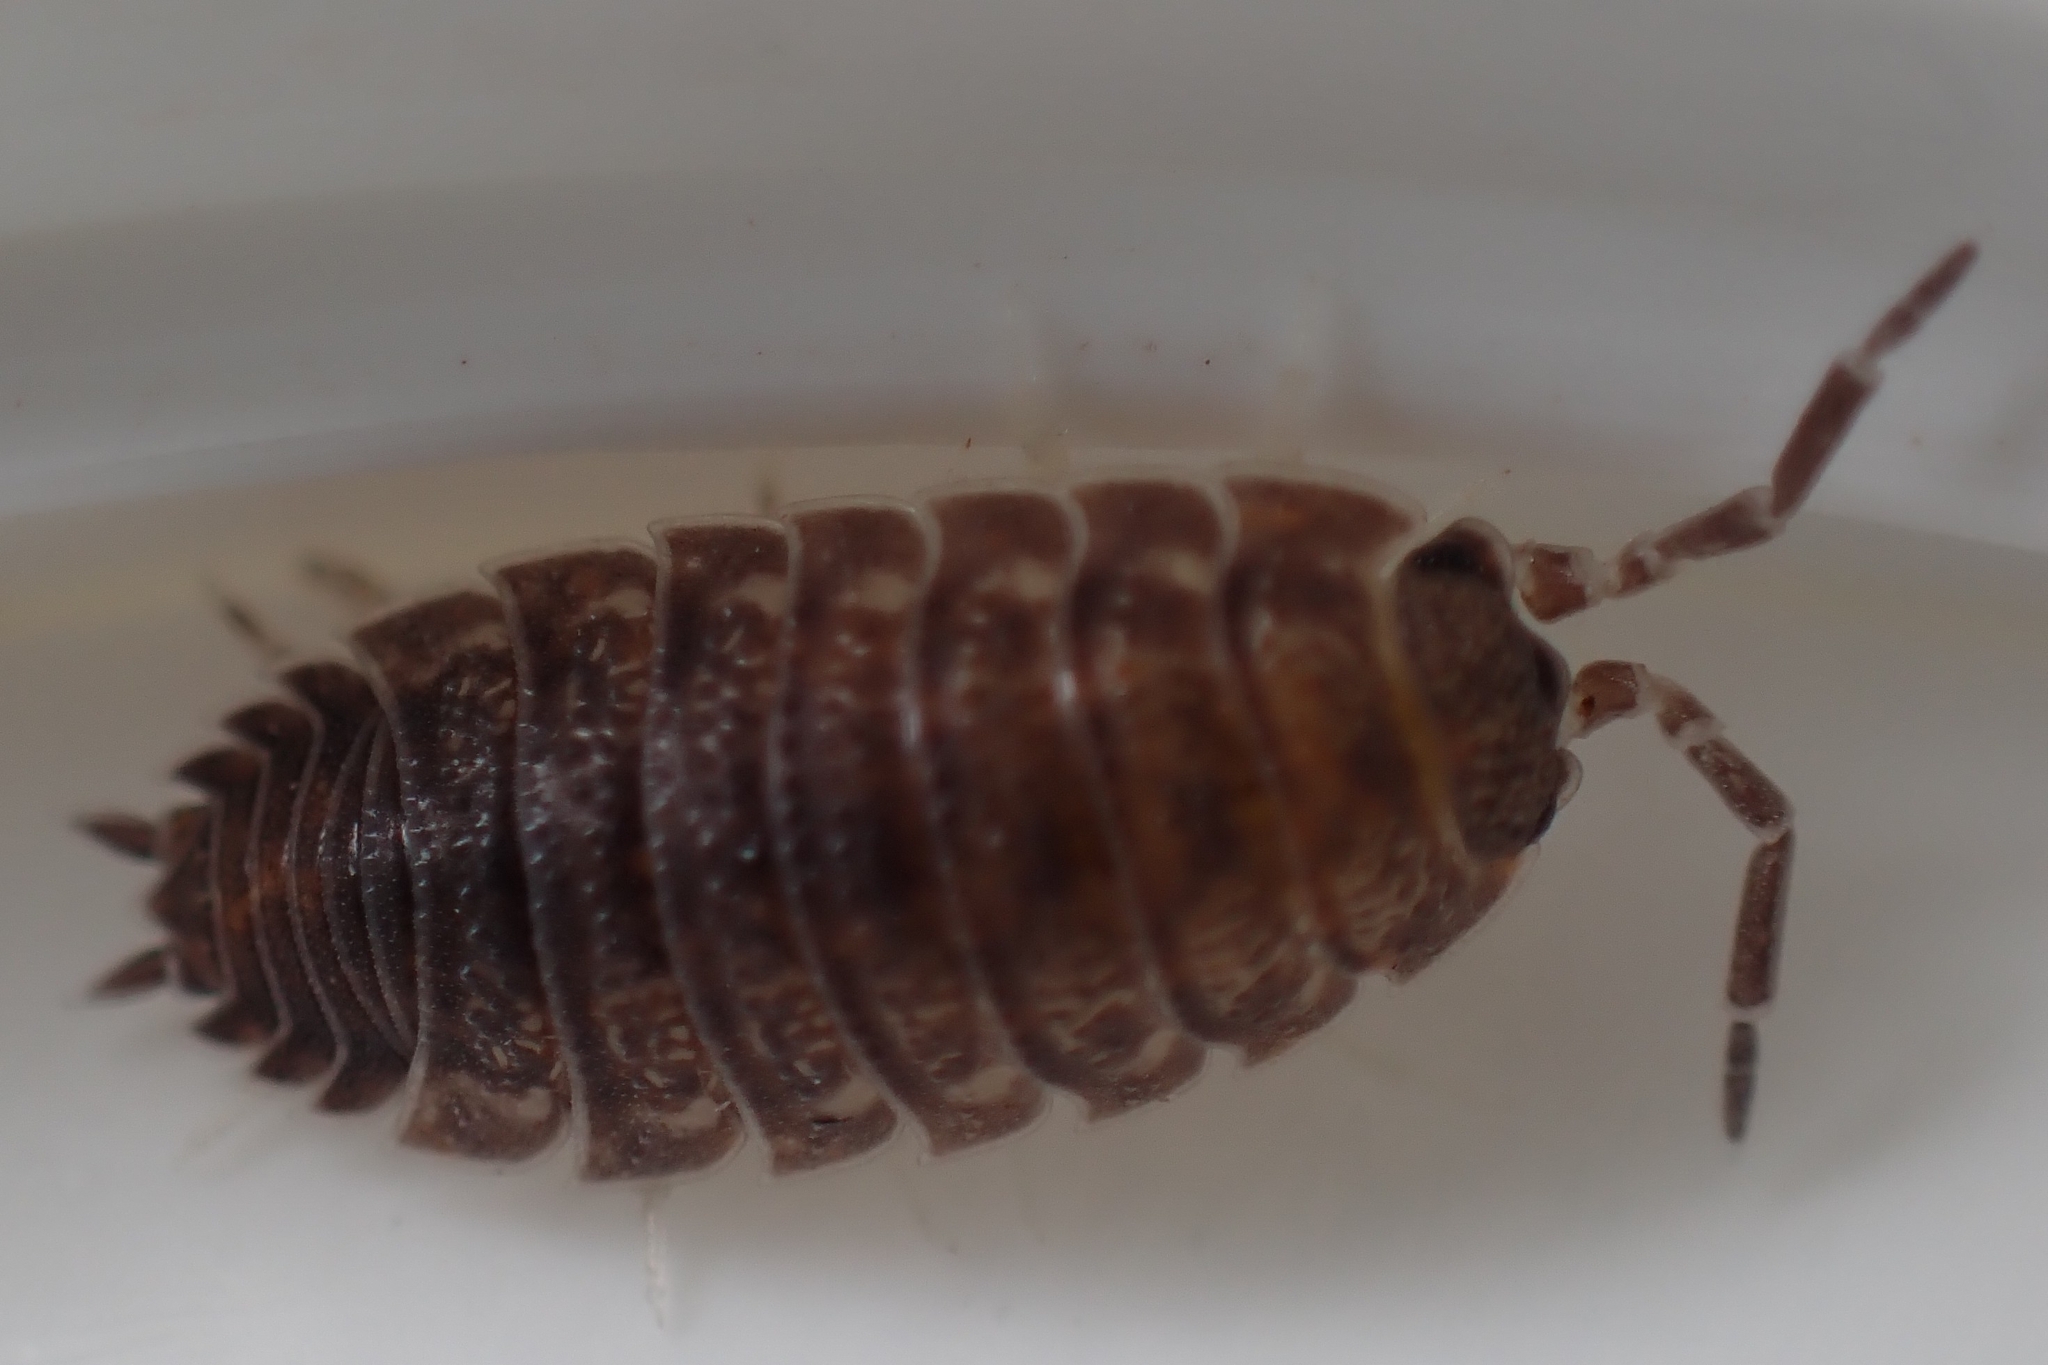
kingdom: Animalia
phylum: Arthropoda
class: Malacostraca
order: Isopoda
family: Porcellionidae
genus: Porcellio
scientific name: Porcellio scaber
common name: Common rough woodlouse
